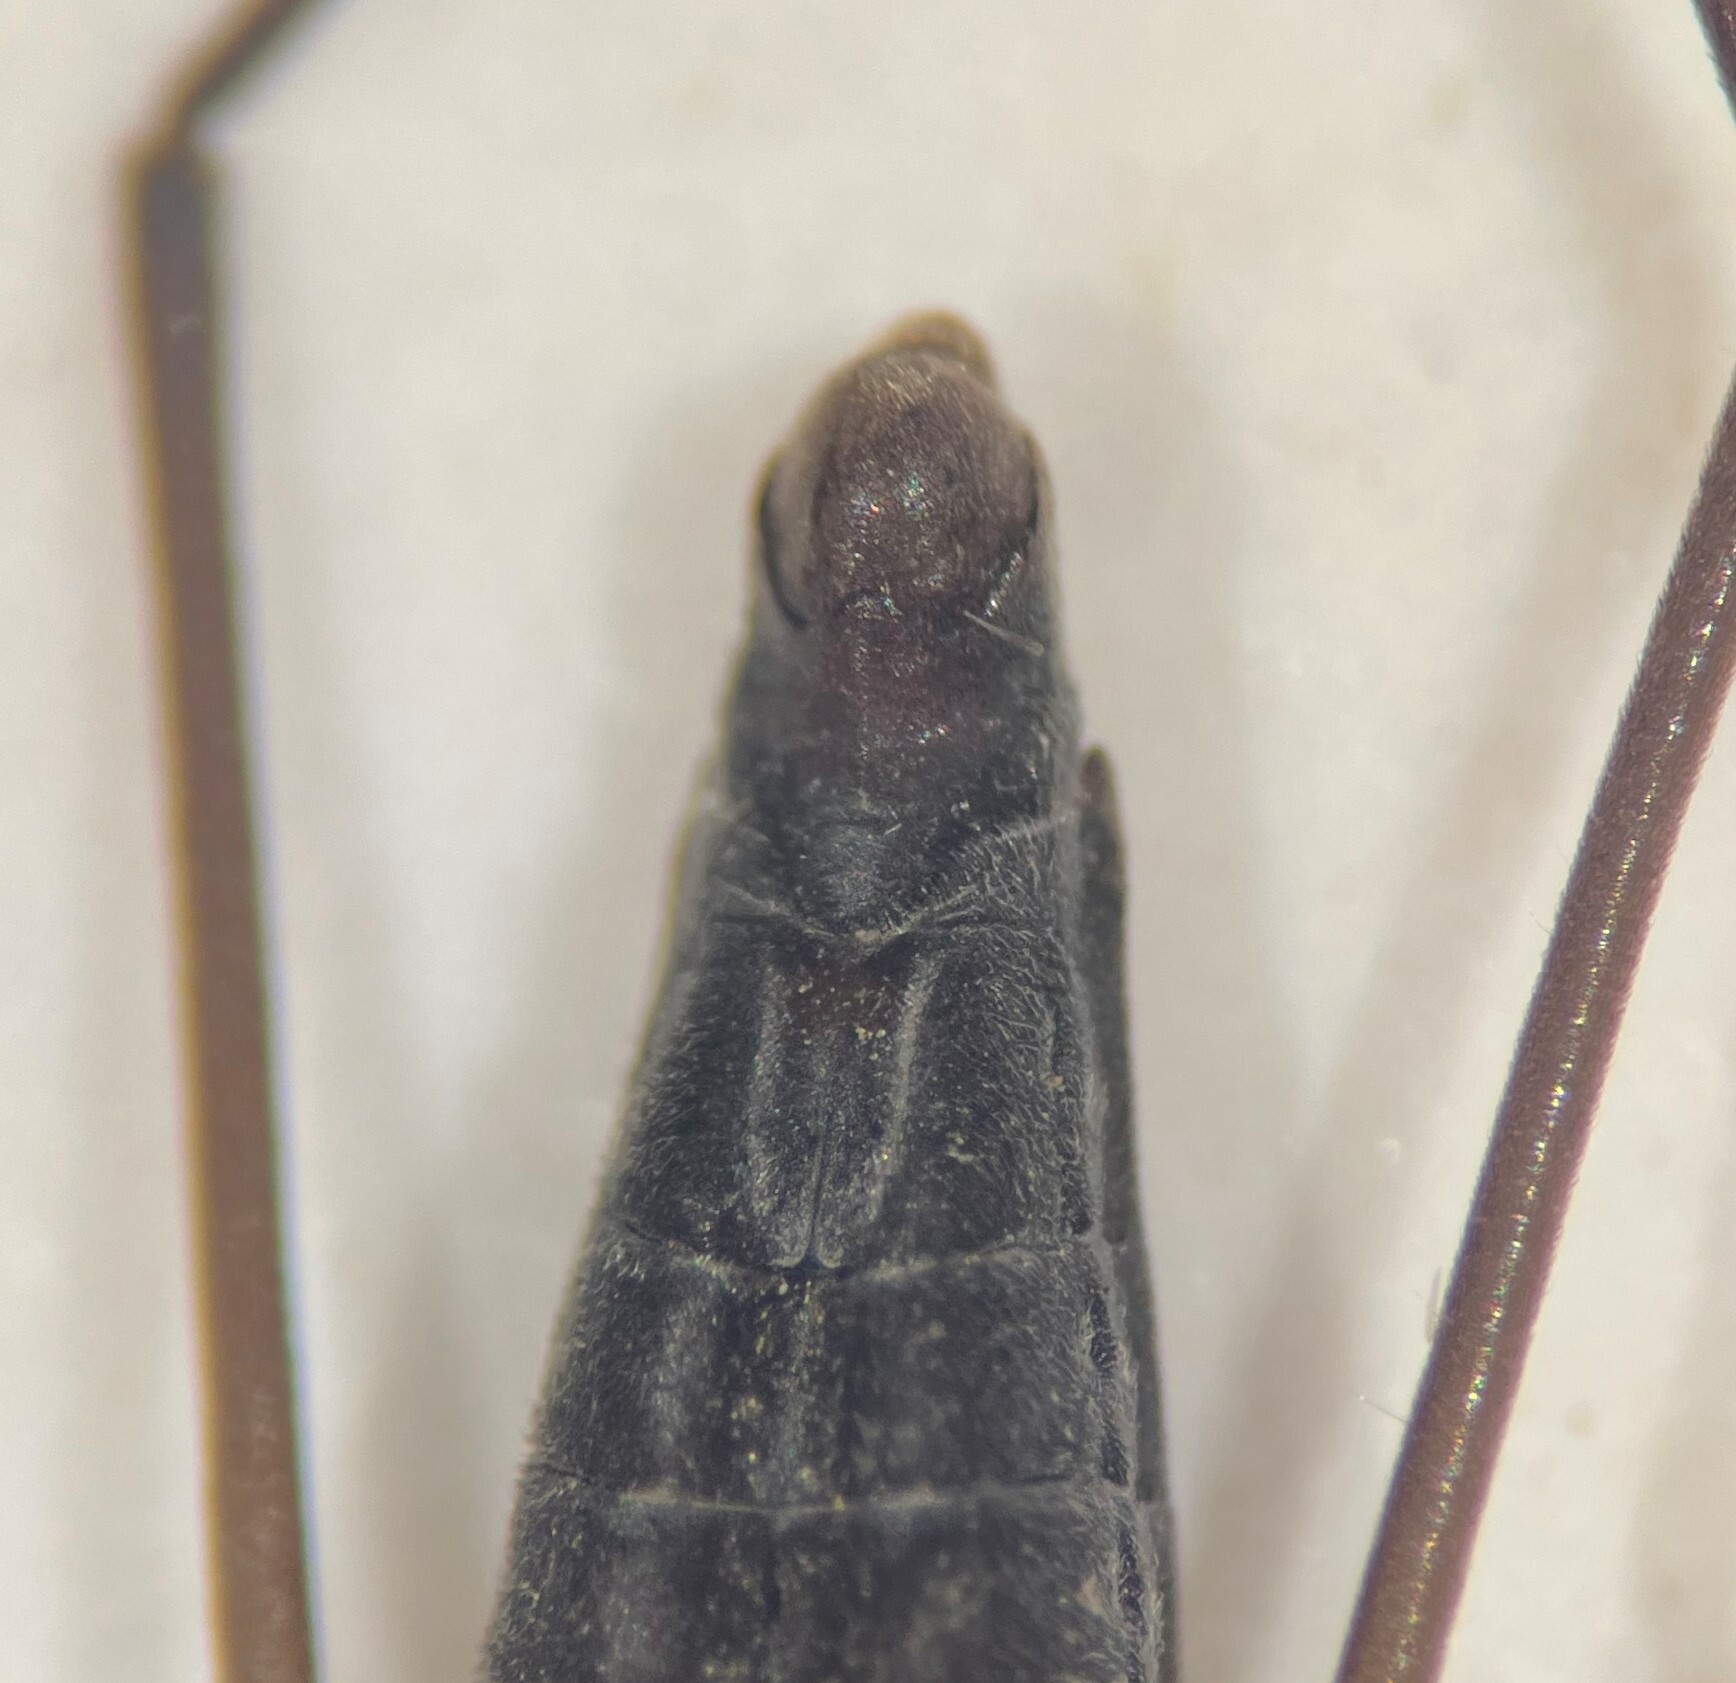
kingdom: Animalia
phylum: Arthropoda
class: Insecta
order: Hemiptera
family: Gerridae
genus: Gerris
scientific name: Gerris pingreensis
